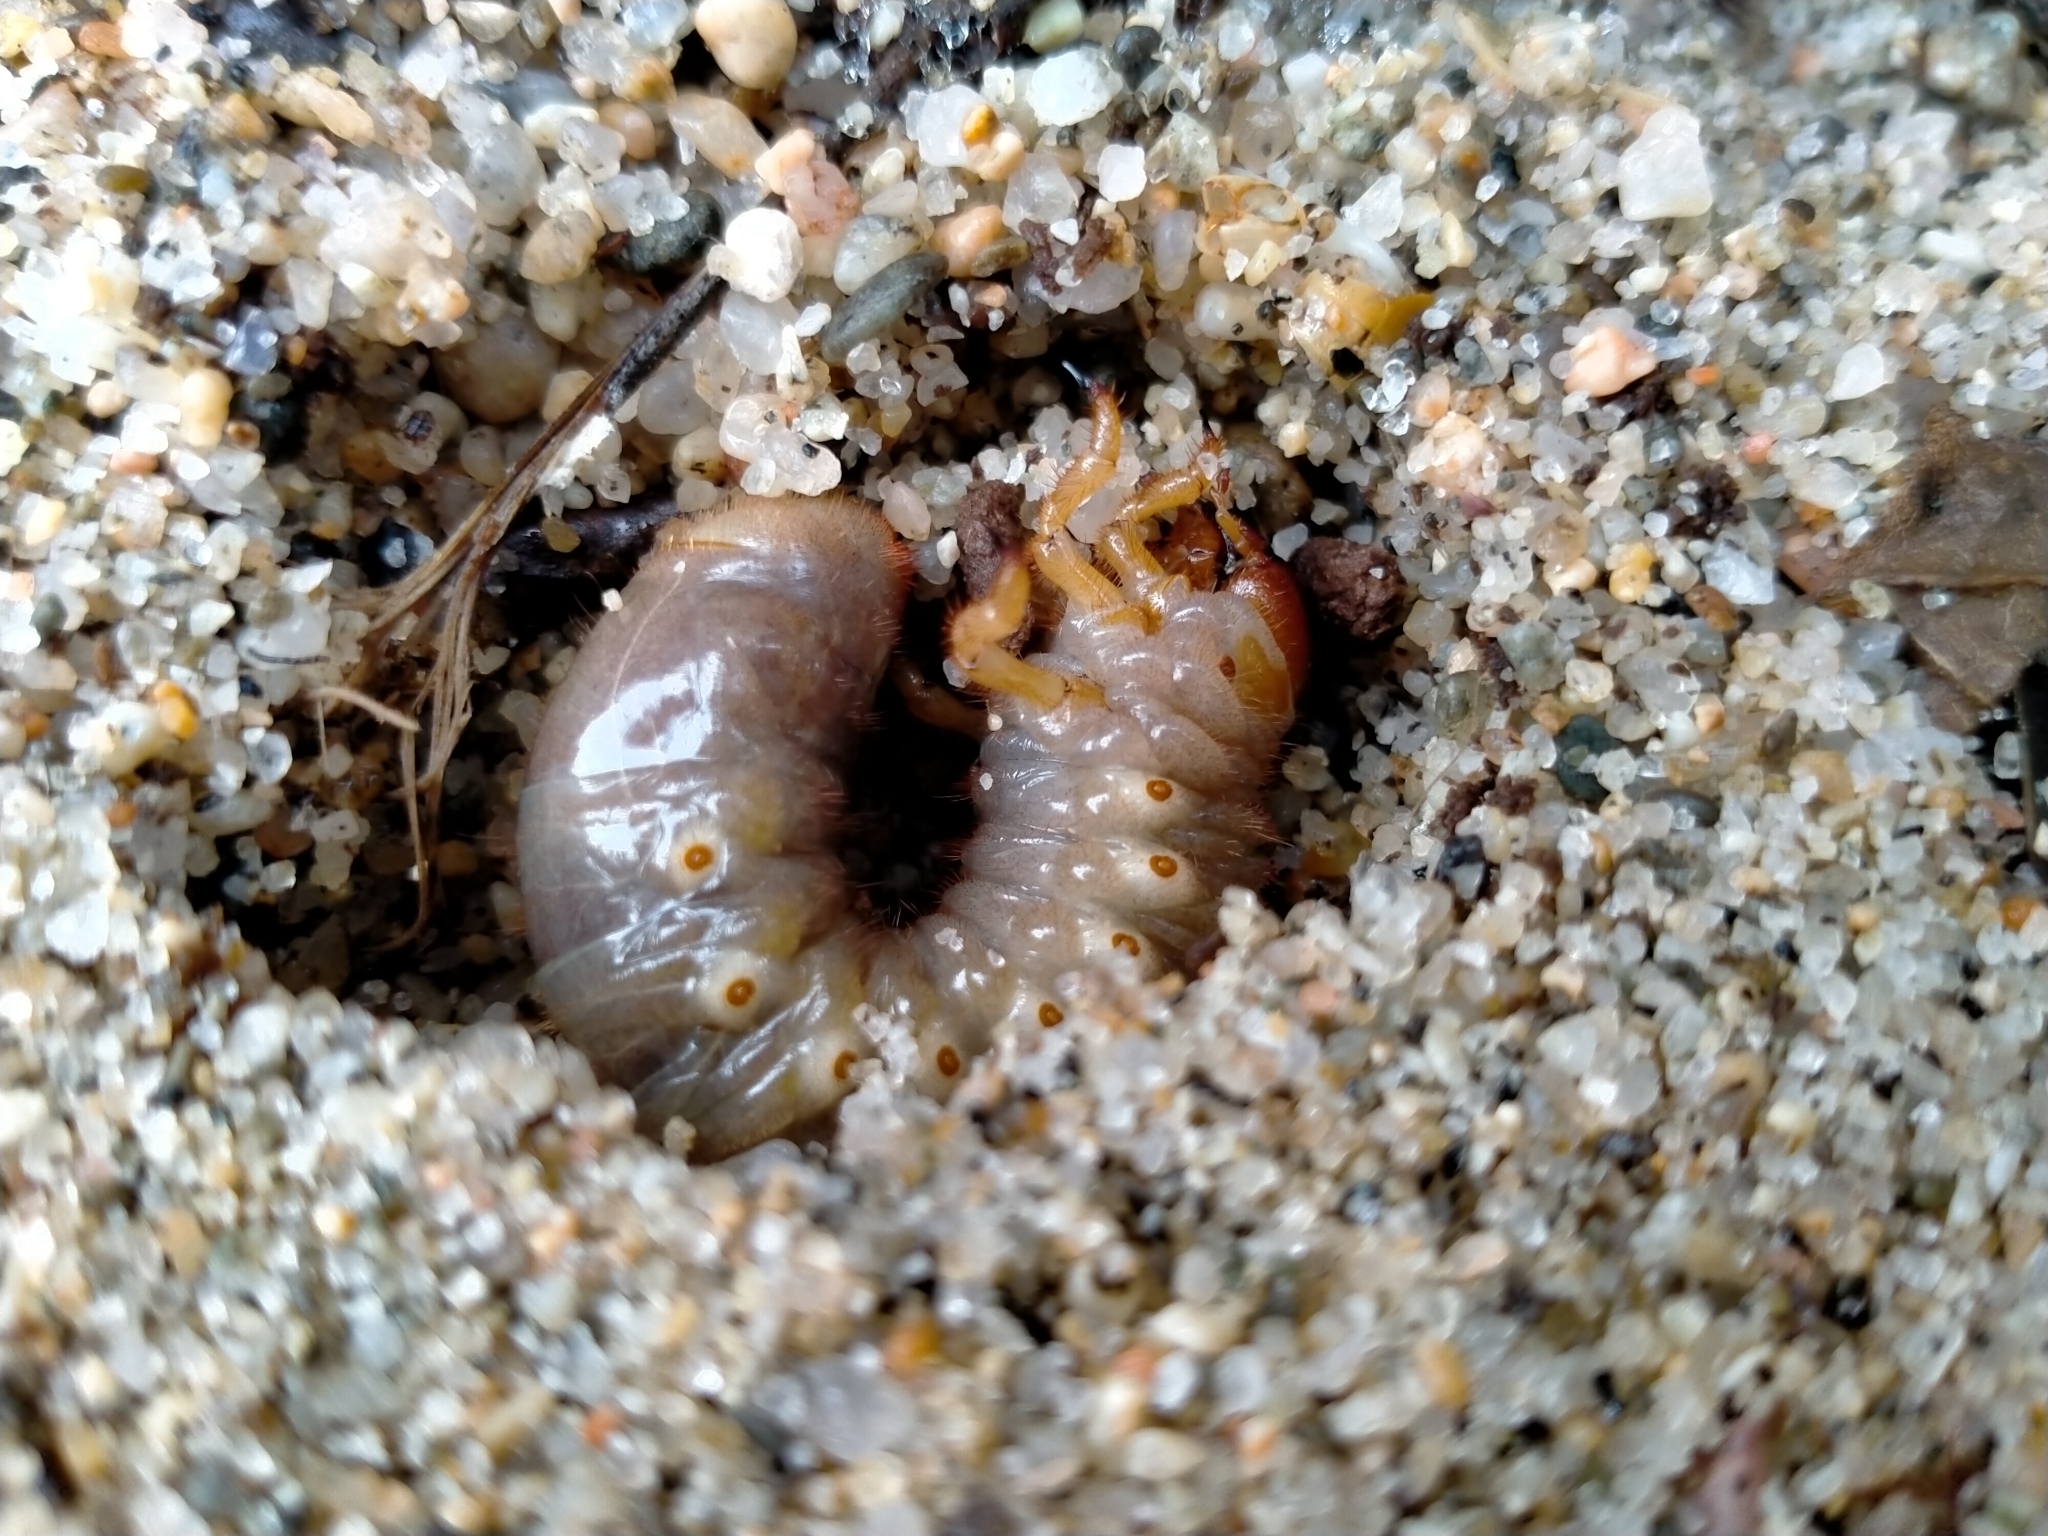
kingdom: Animalia
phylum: Arthropoda
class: Insecta
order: Coleoptera
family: Scarabaeidae
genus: Pericoptus
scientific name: Pericoptus truncatus
